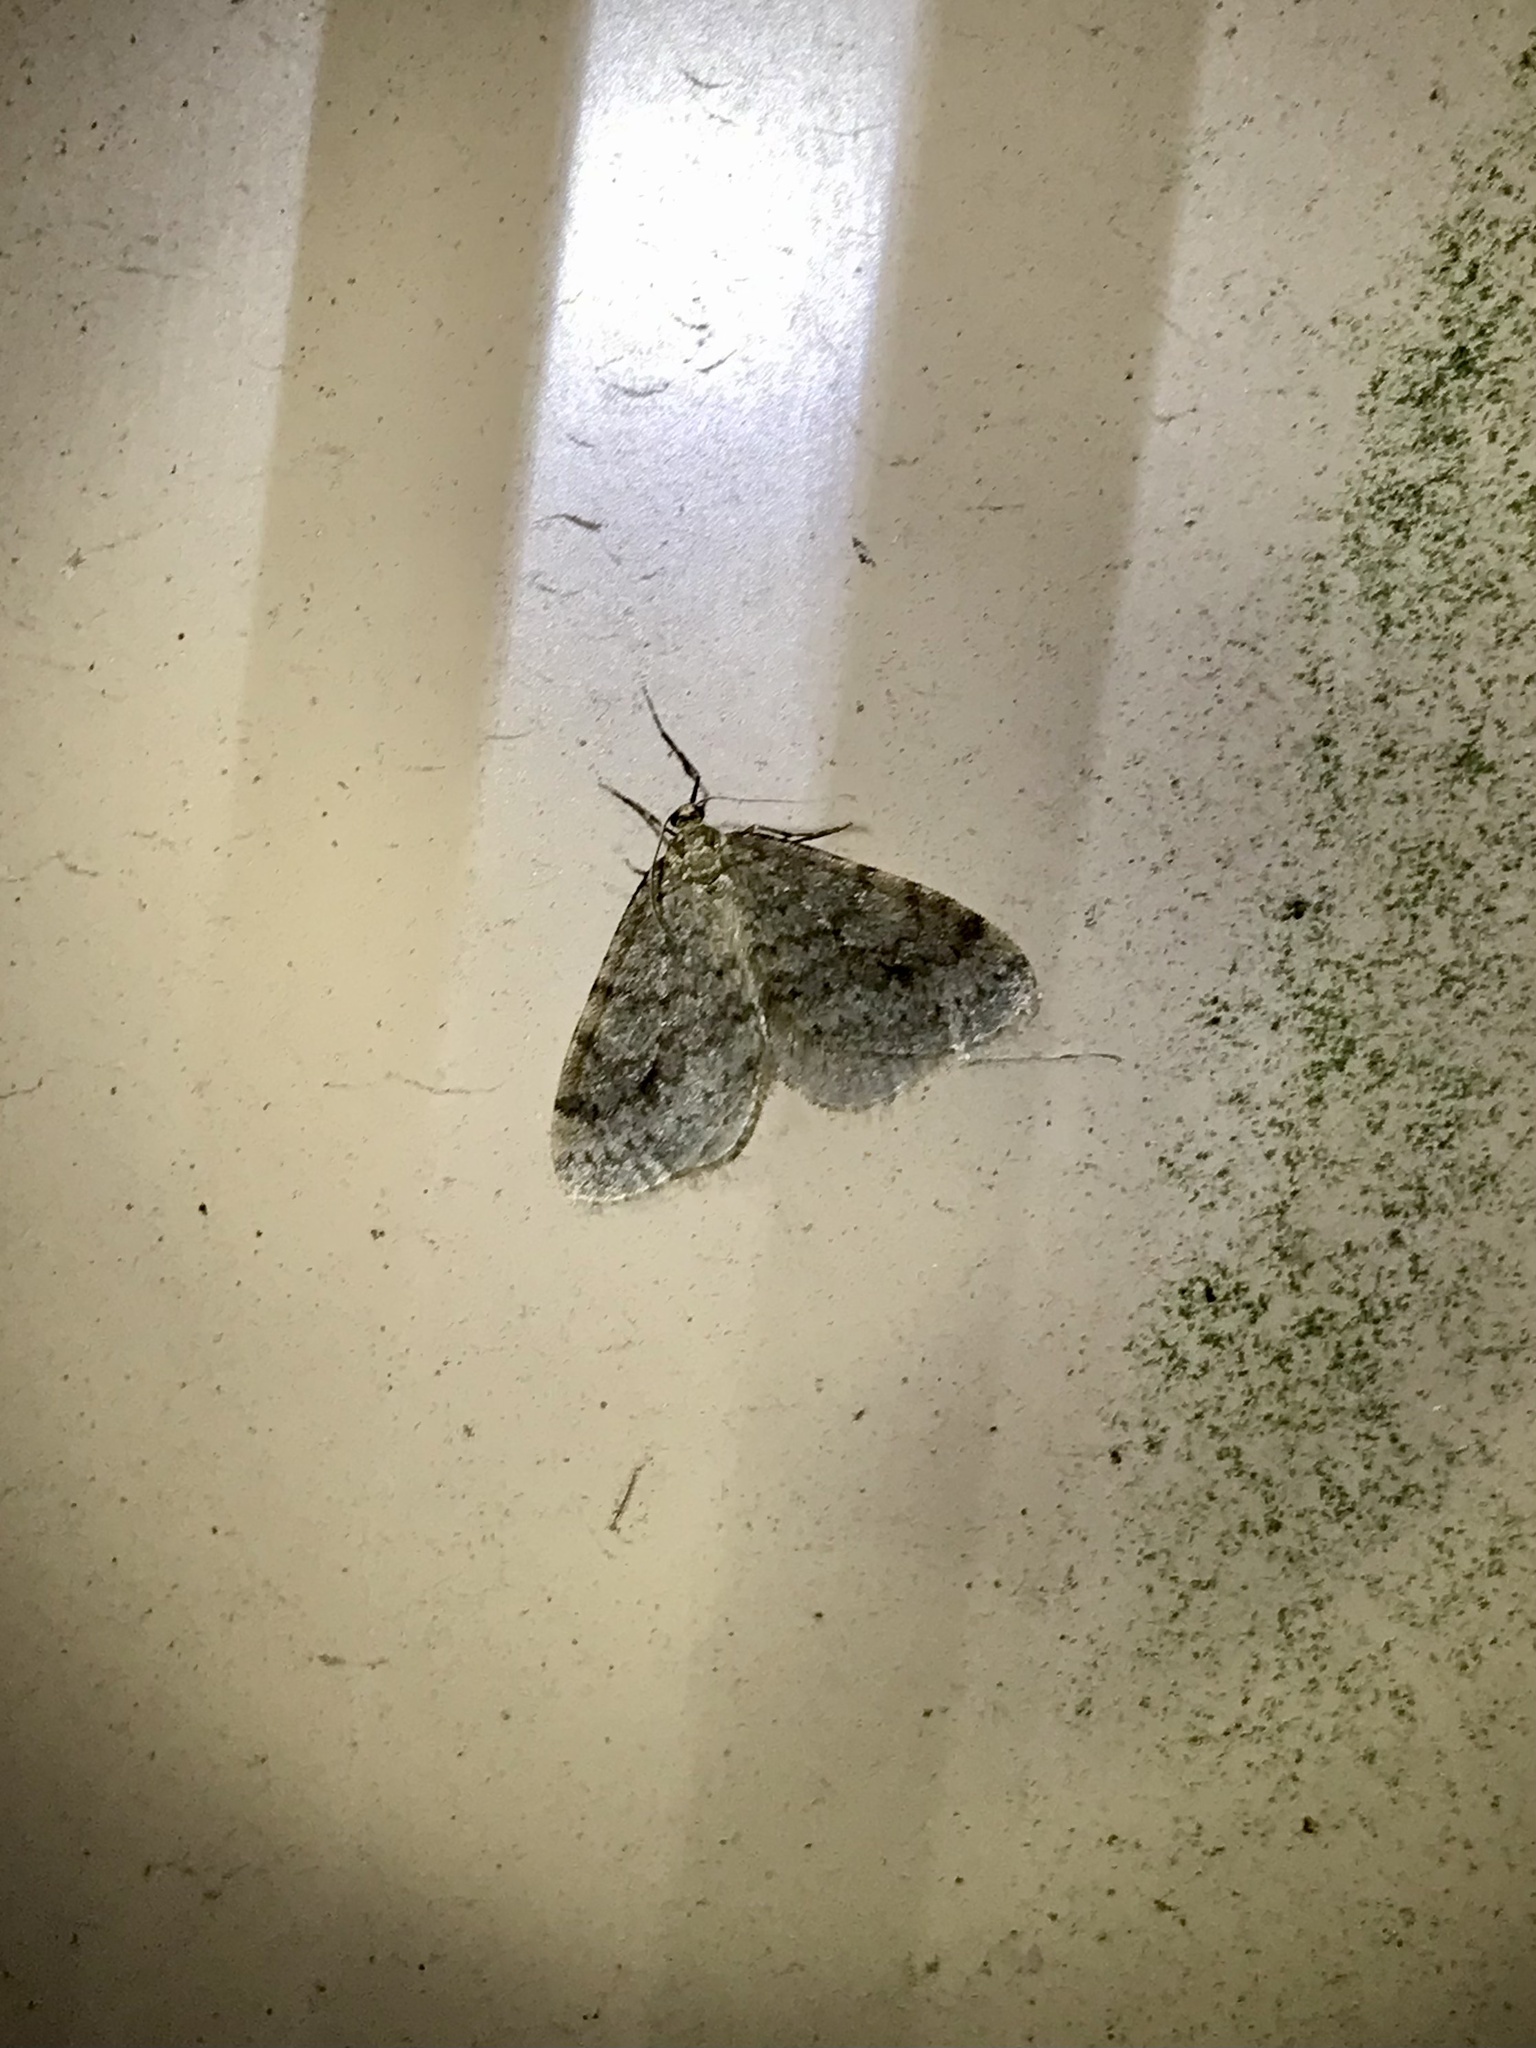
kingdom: Animalia
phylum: Arthropoda
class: Insecta
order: Lepidoptera
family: Geometridae
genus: Operophtera
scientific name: Operophtera bruceata
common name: Bruce spanworm
